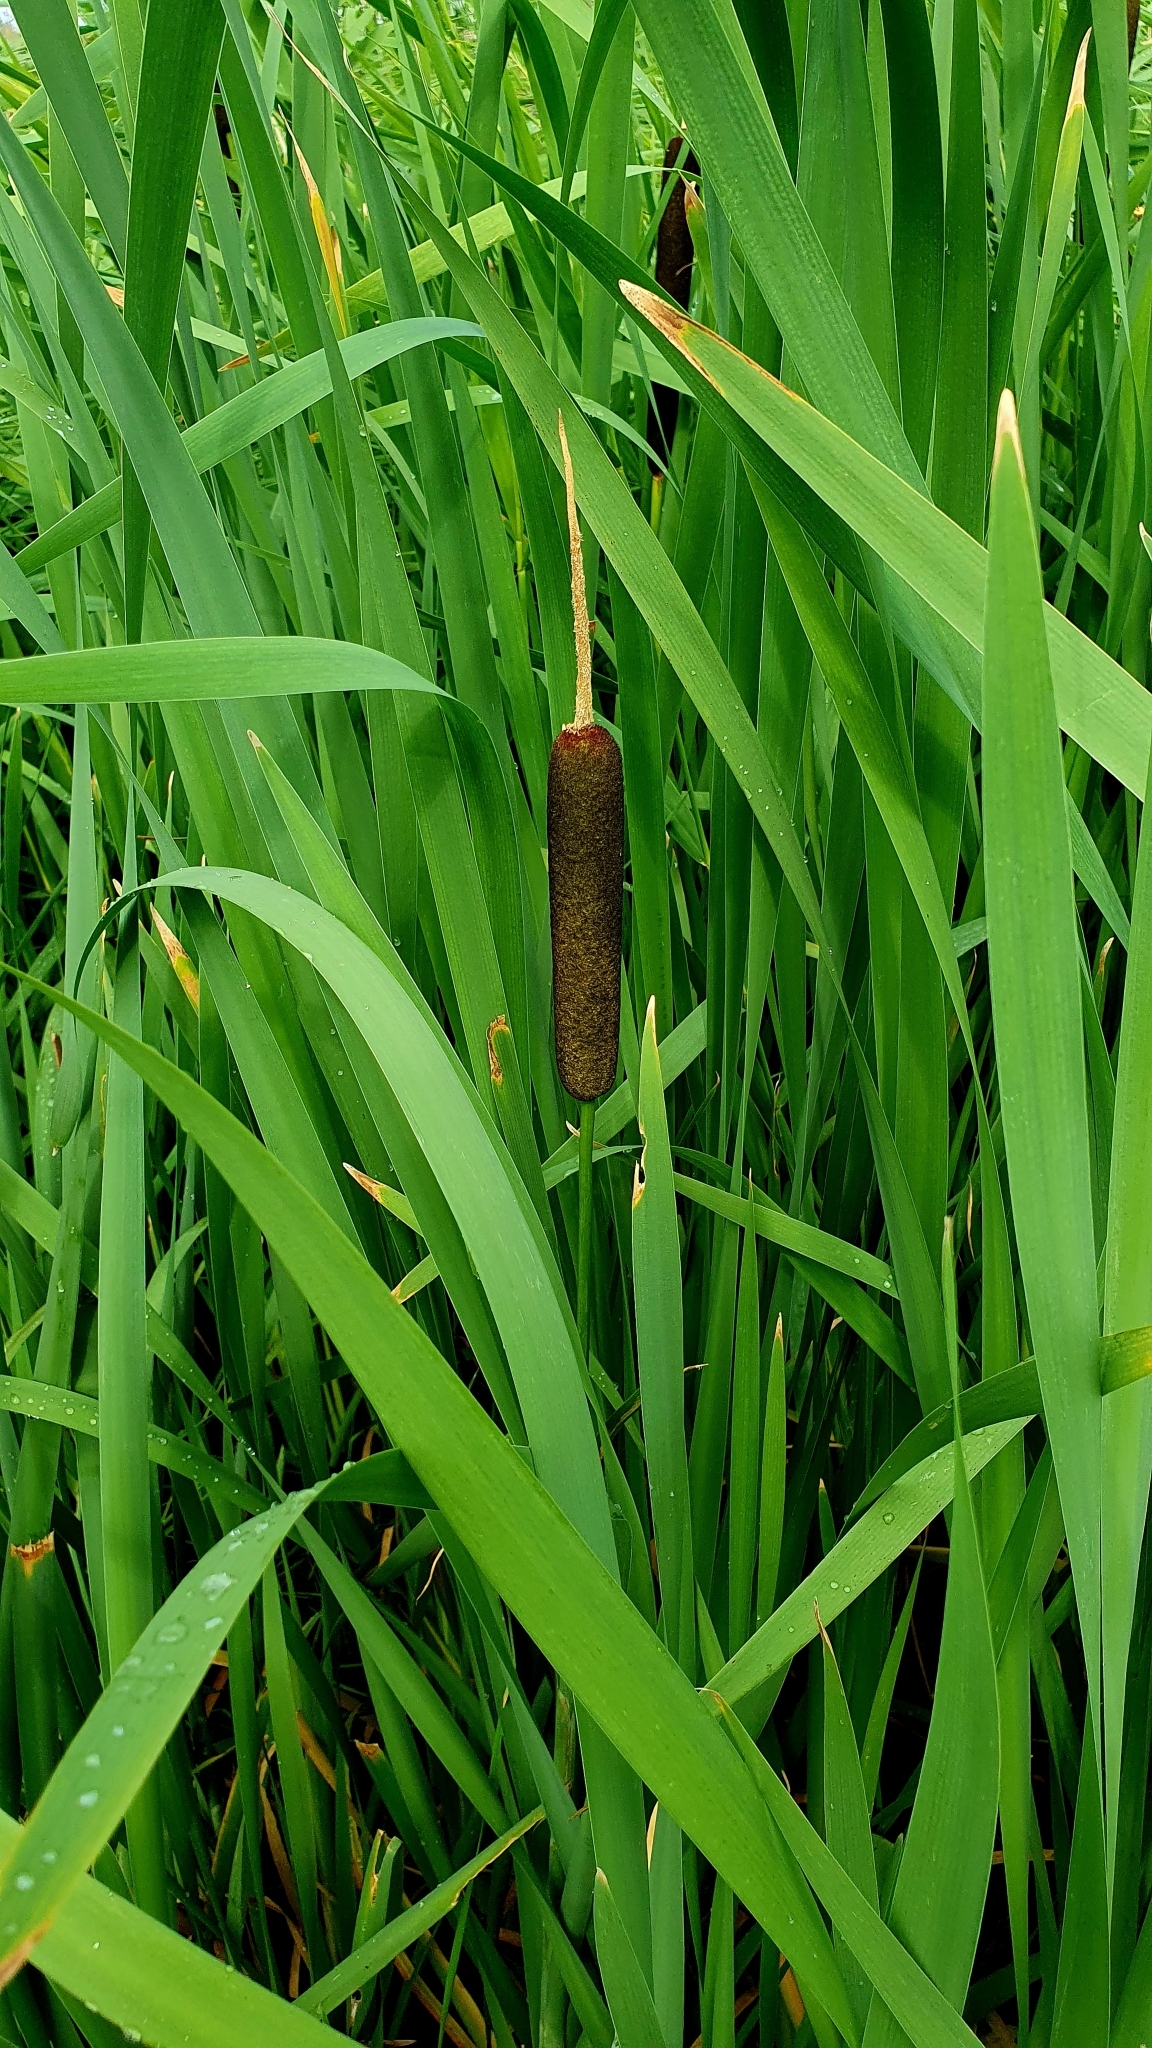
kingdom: Plantae
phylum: Tracheophyta
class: Liliopsida
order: Poales
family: Typhaceae
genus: Typha
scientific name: Typha latifolia
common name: Broadleaf cattail
